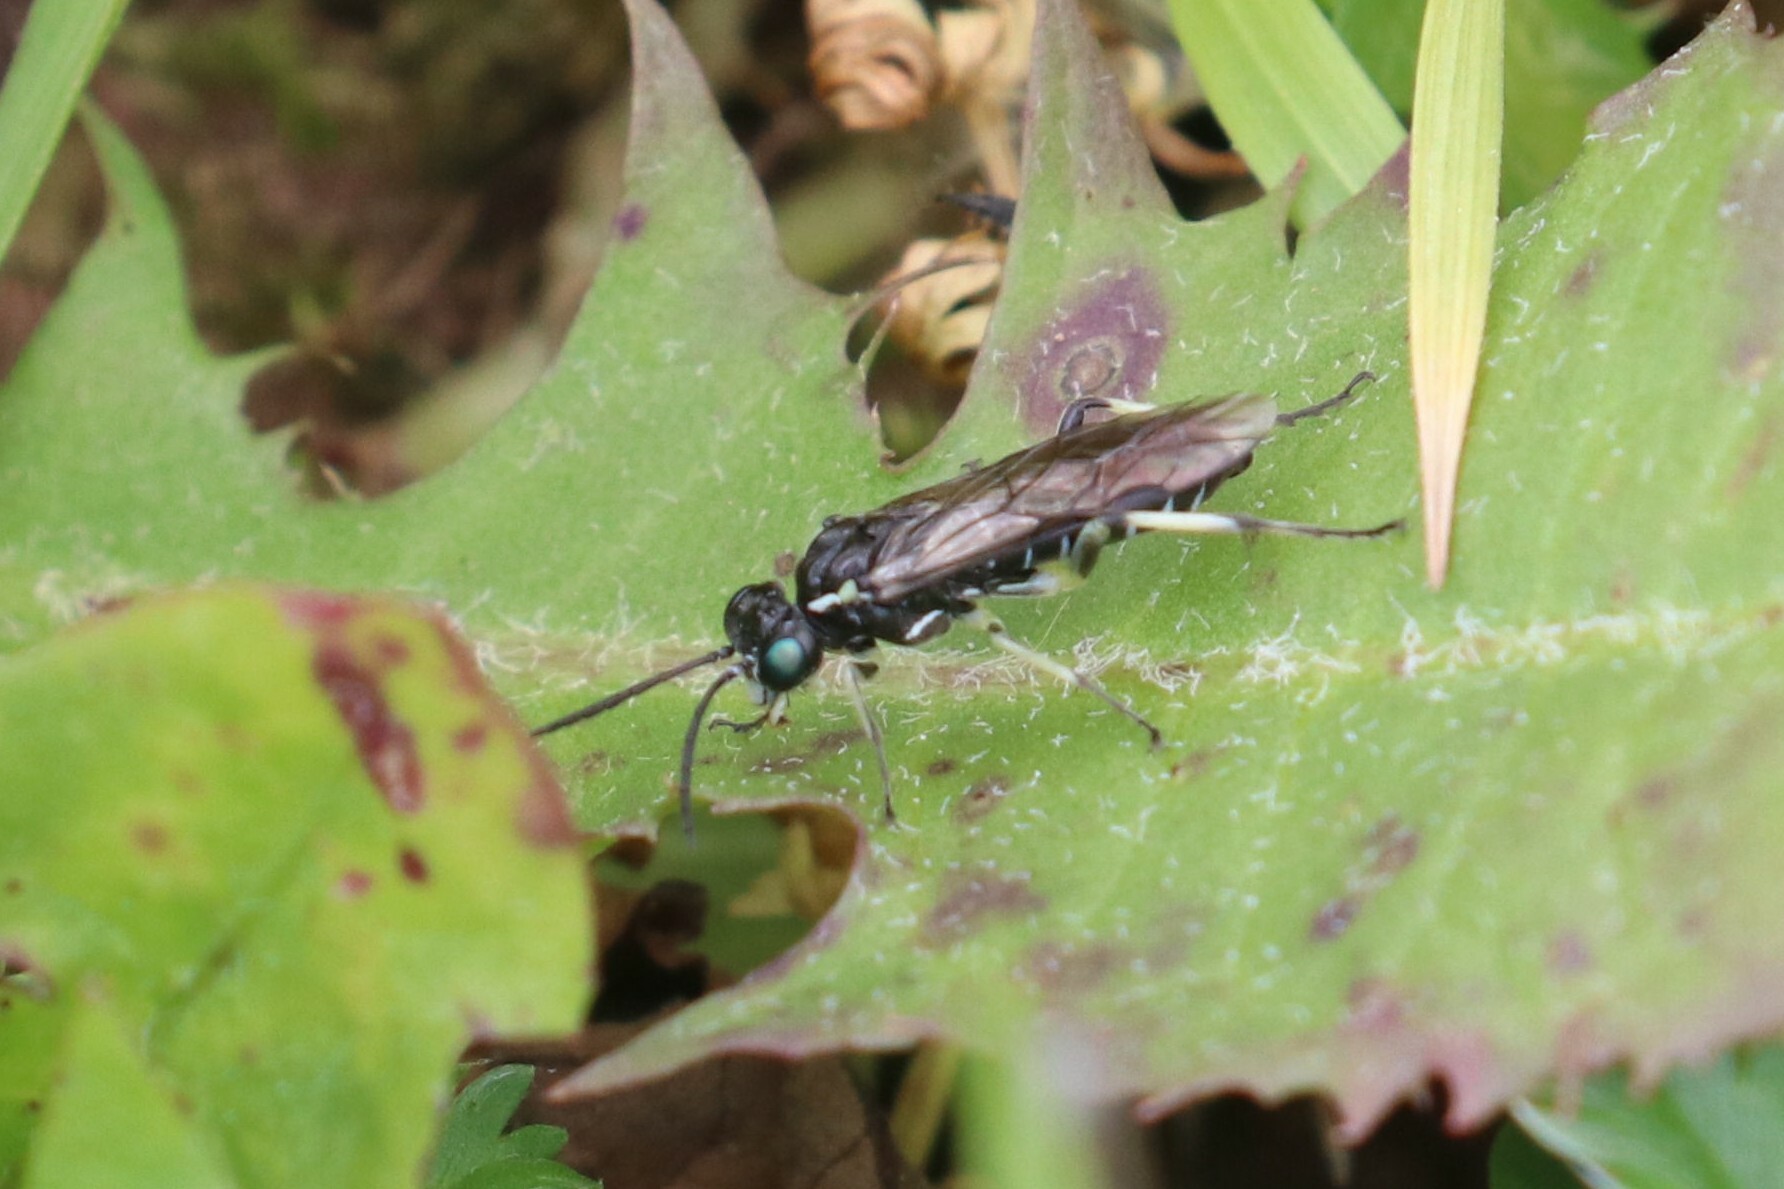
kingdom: Animalia
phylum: Arthropoda
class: Insecta
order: Hymenoptera
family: Tenthredinidae
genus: Macrophya
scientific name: Macrophya albipuncta
